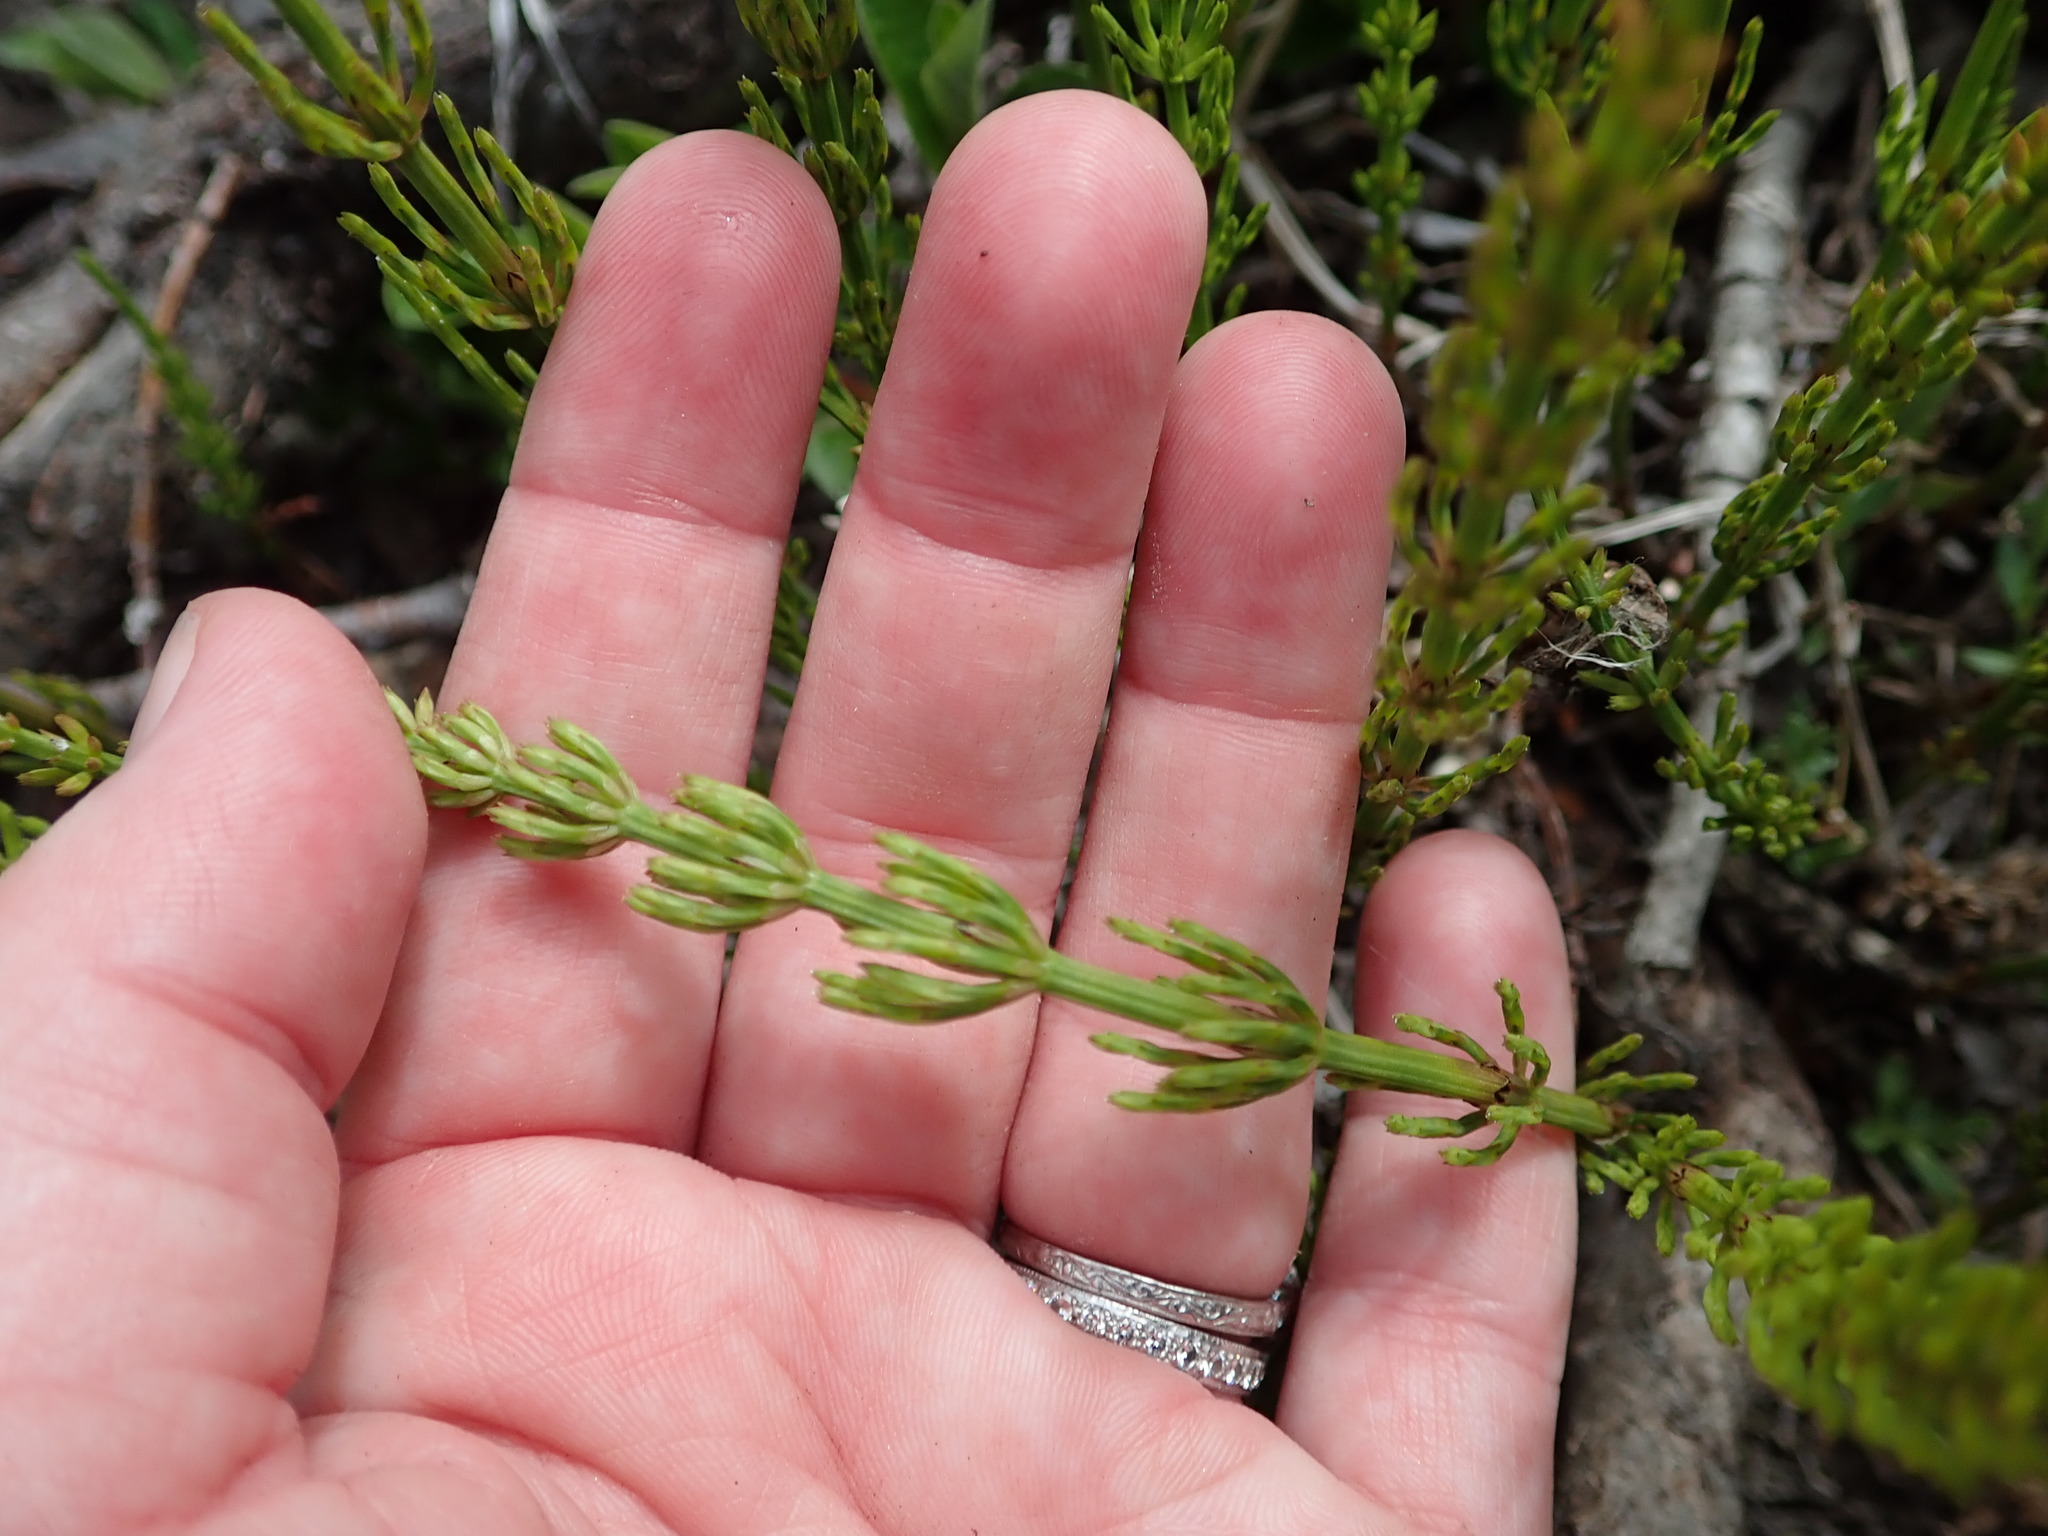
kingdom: Plantae
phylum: Tracheophyta
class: Polypodiopsida
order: Equisetales
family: Equisetaceae
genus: Equisetum
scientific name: Equisetum arvense
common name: Field horsetail
